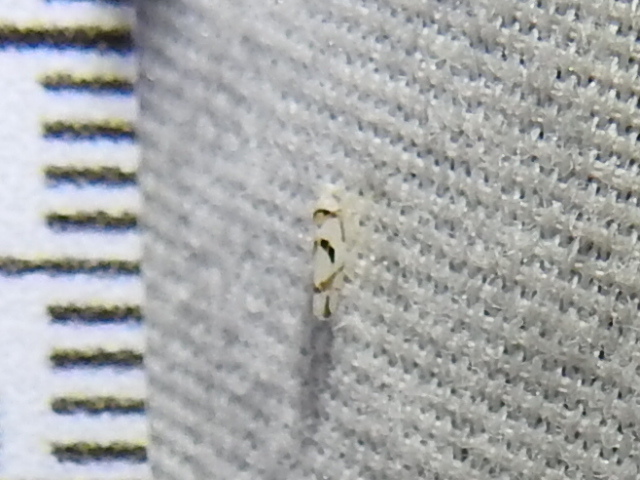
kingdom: Animalia
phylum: Arthropoda
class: Insecta
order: Hemiptera
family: Cicadellidae
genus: Eratoneura
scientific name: Eratoneura lunata
